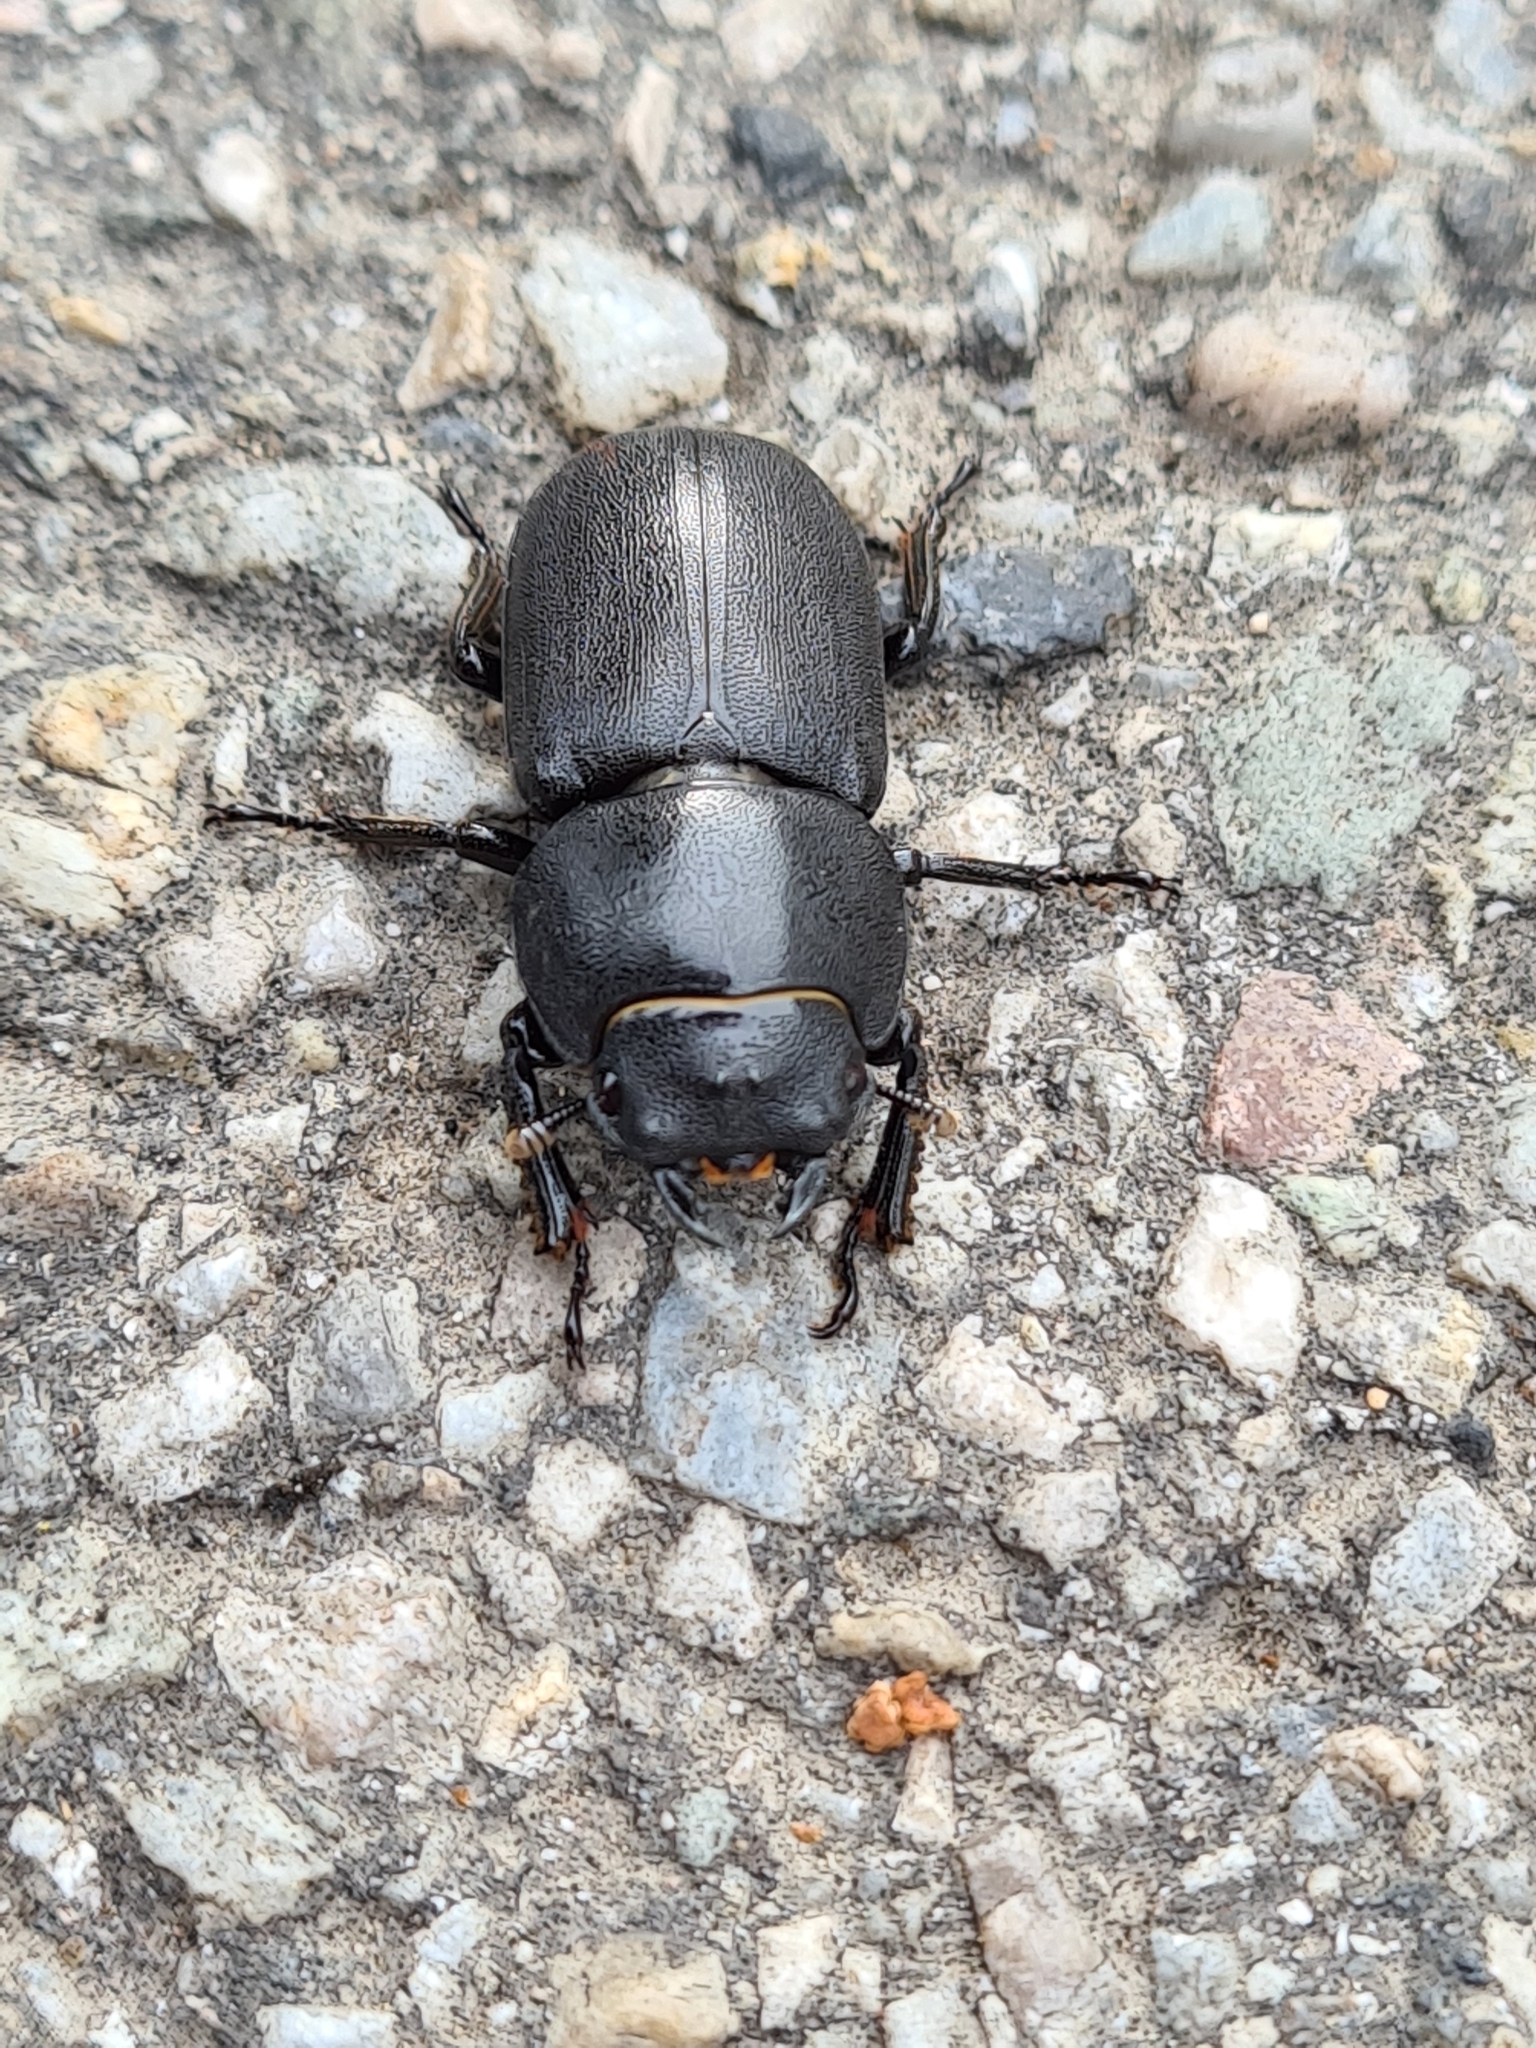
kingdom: Animalia
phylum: Arthropoda
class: Insecta
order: Coleoptera
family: Lucanidae
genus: Dorcus
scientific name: Dorcus parallelipipedus
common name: Lesser stag beetle
